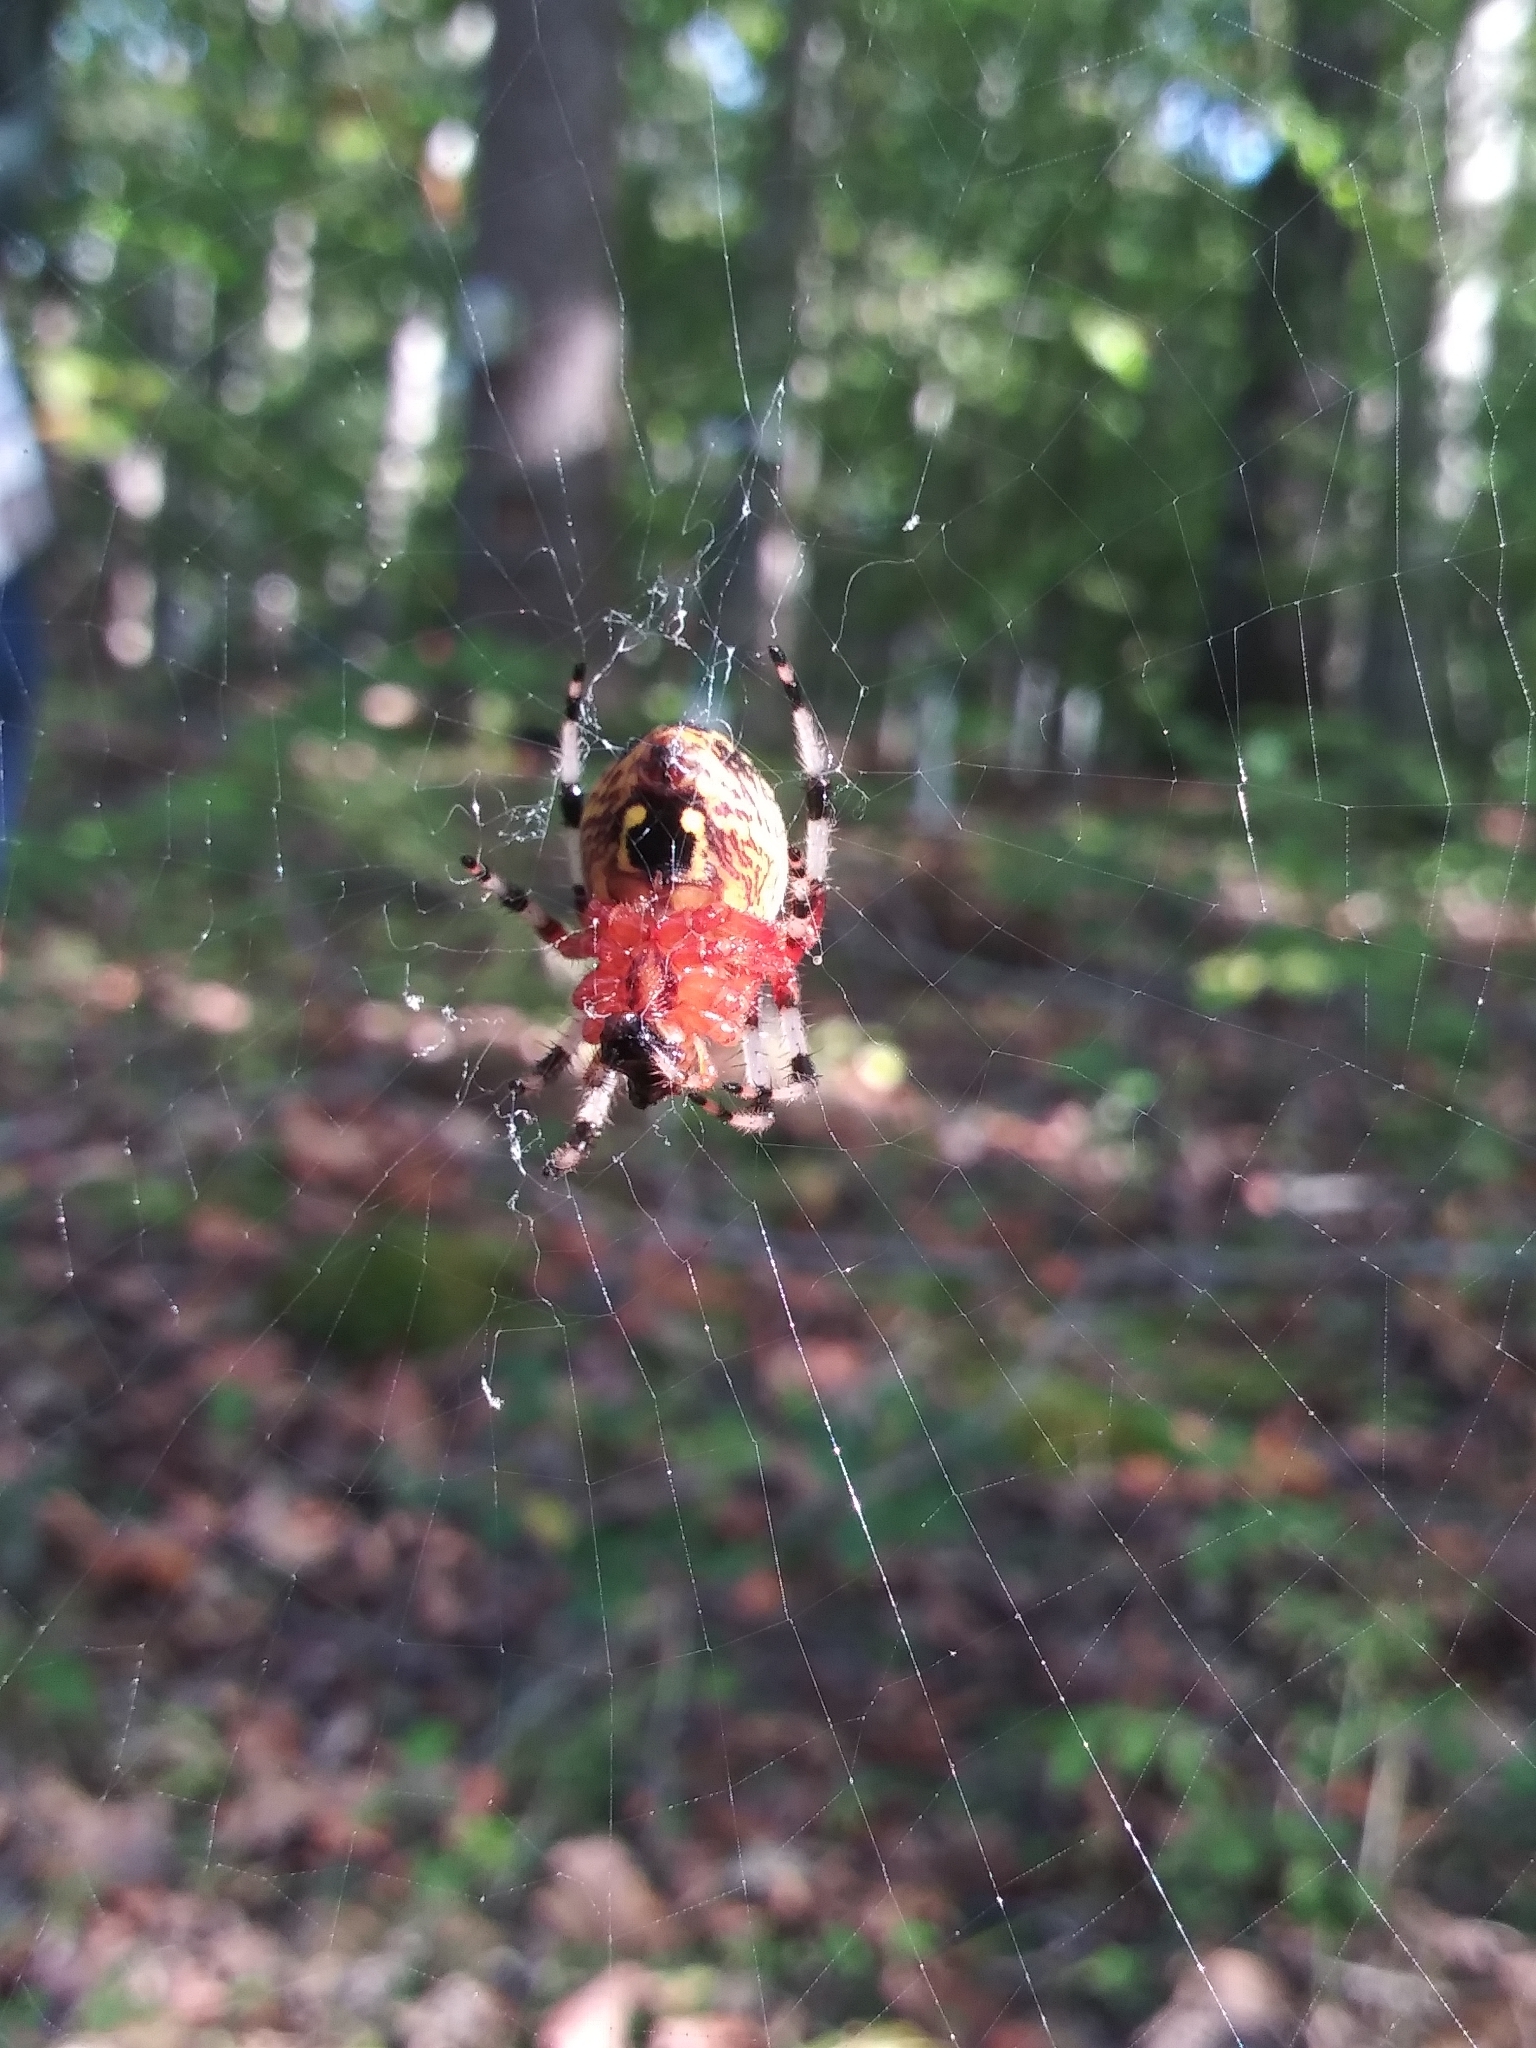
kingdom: Animalia
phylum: Arthropoda
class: Arachnida
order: Araneae
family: Araneidae
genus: Araneus
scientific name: Araneus marmoreus
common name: Marbled orbweaver
